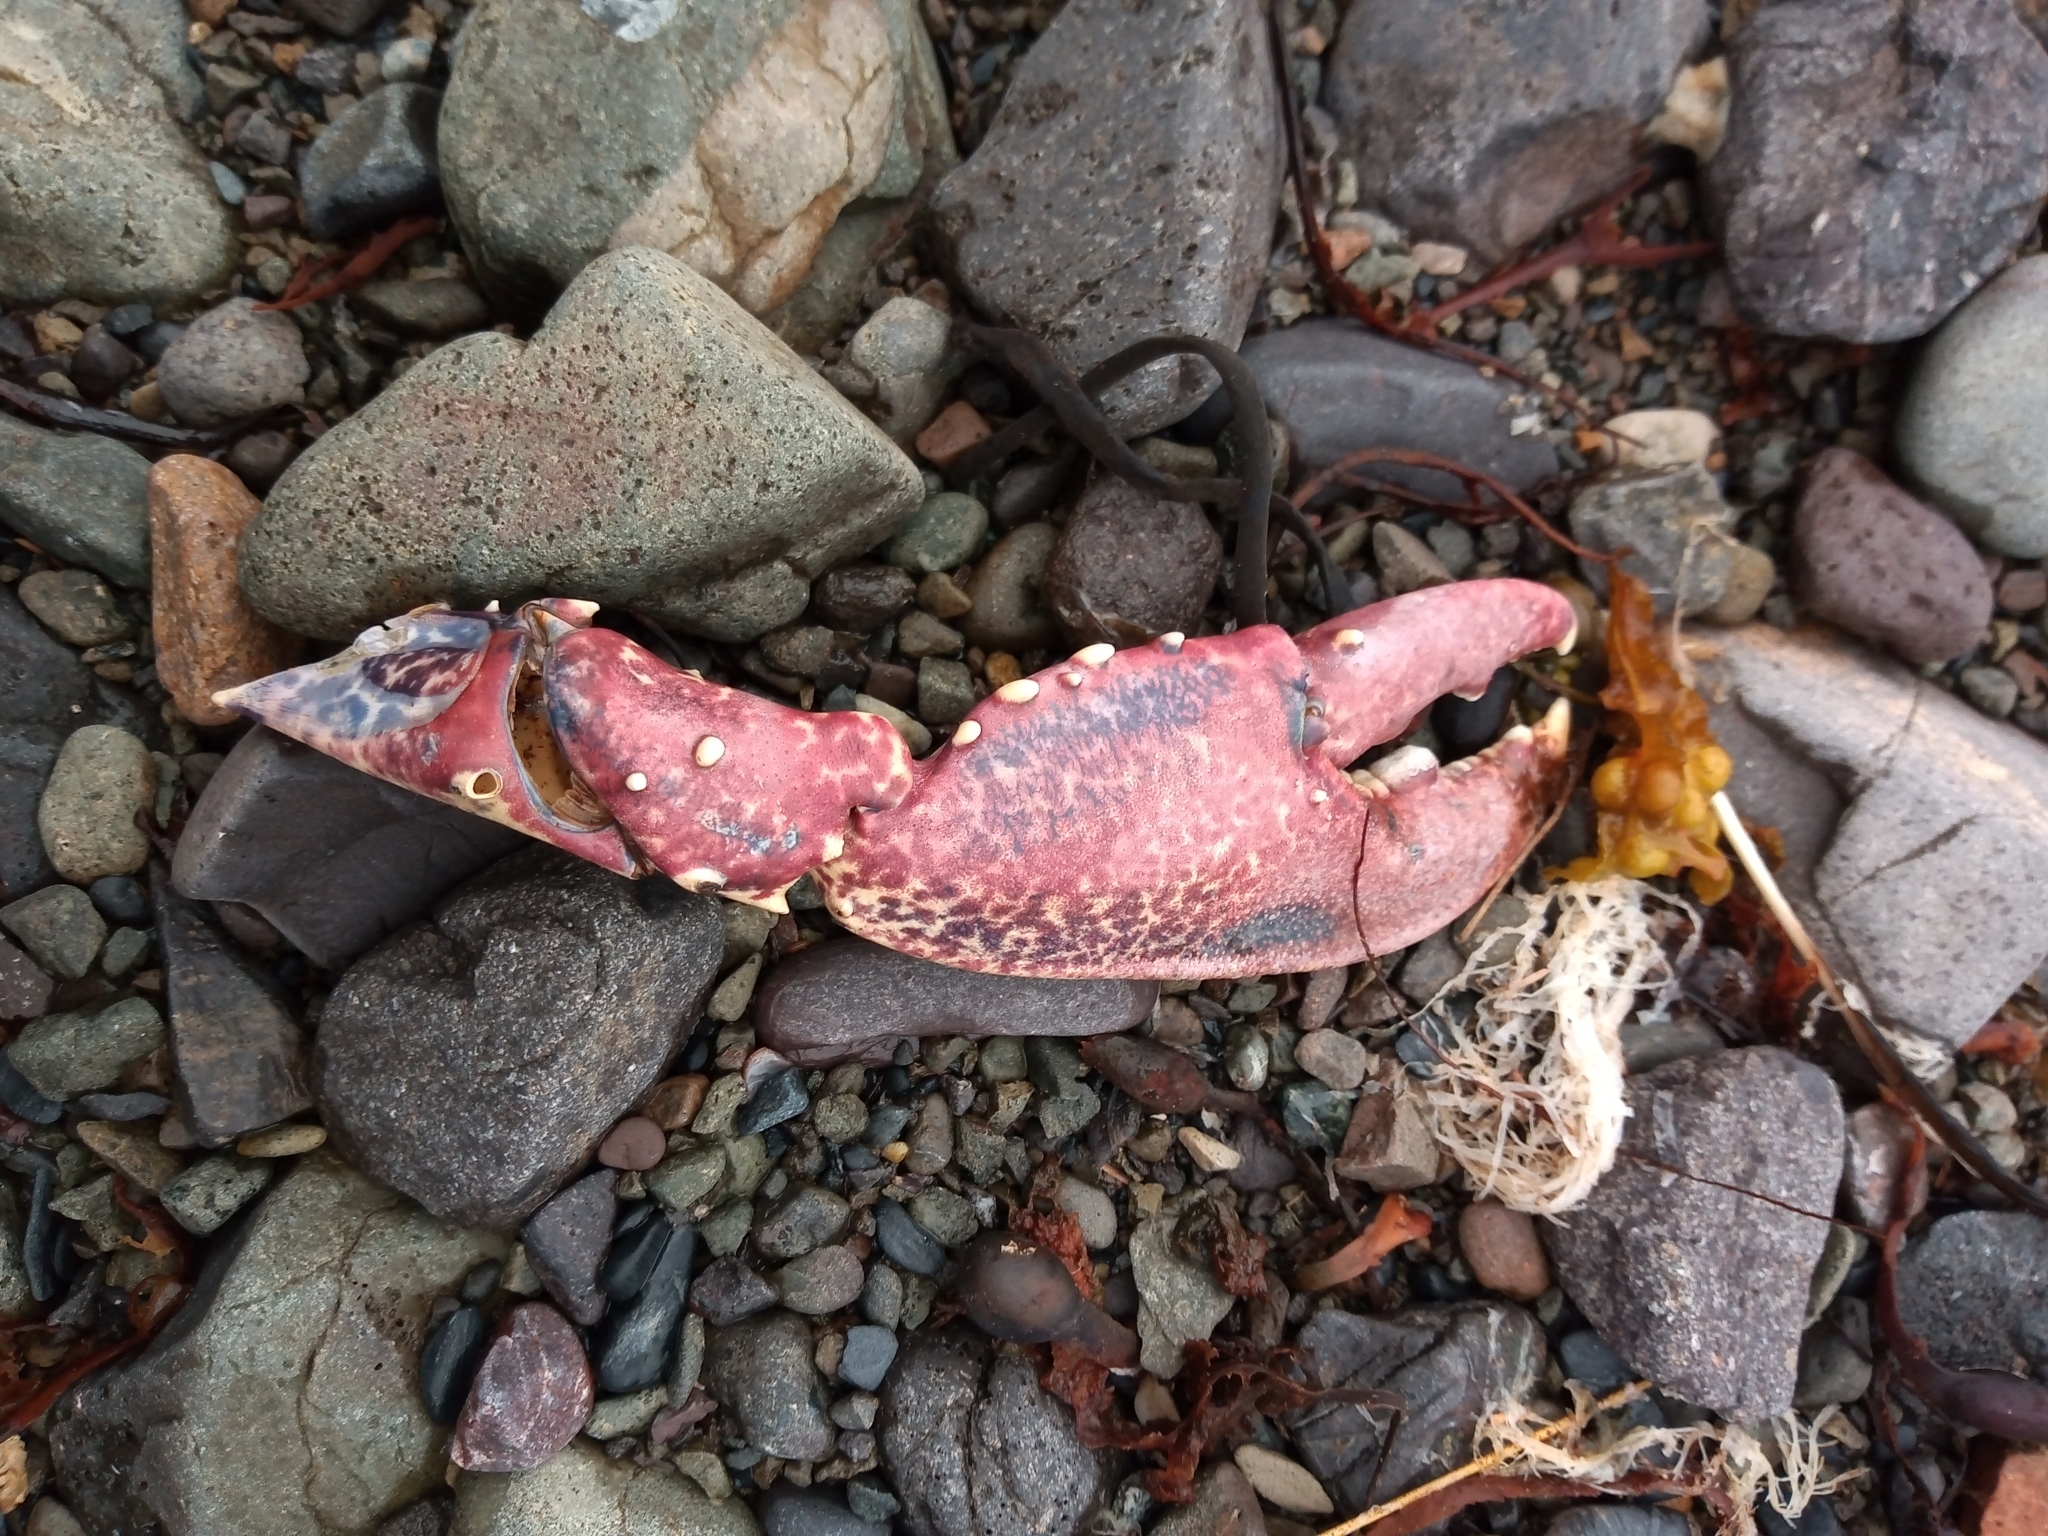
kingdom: Animalia
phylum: Arthropoda
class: Malacostraca
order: Decapoda
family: Nephropidae
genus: Homarus
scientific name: Homarus gammarus
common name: European lobster
